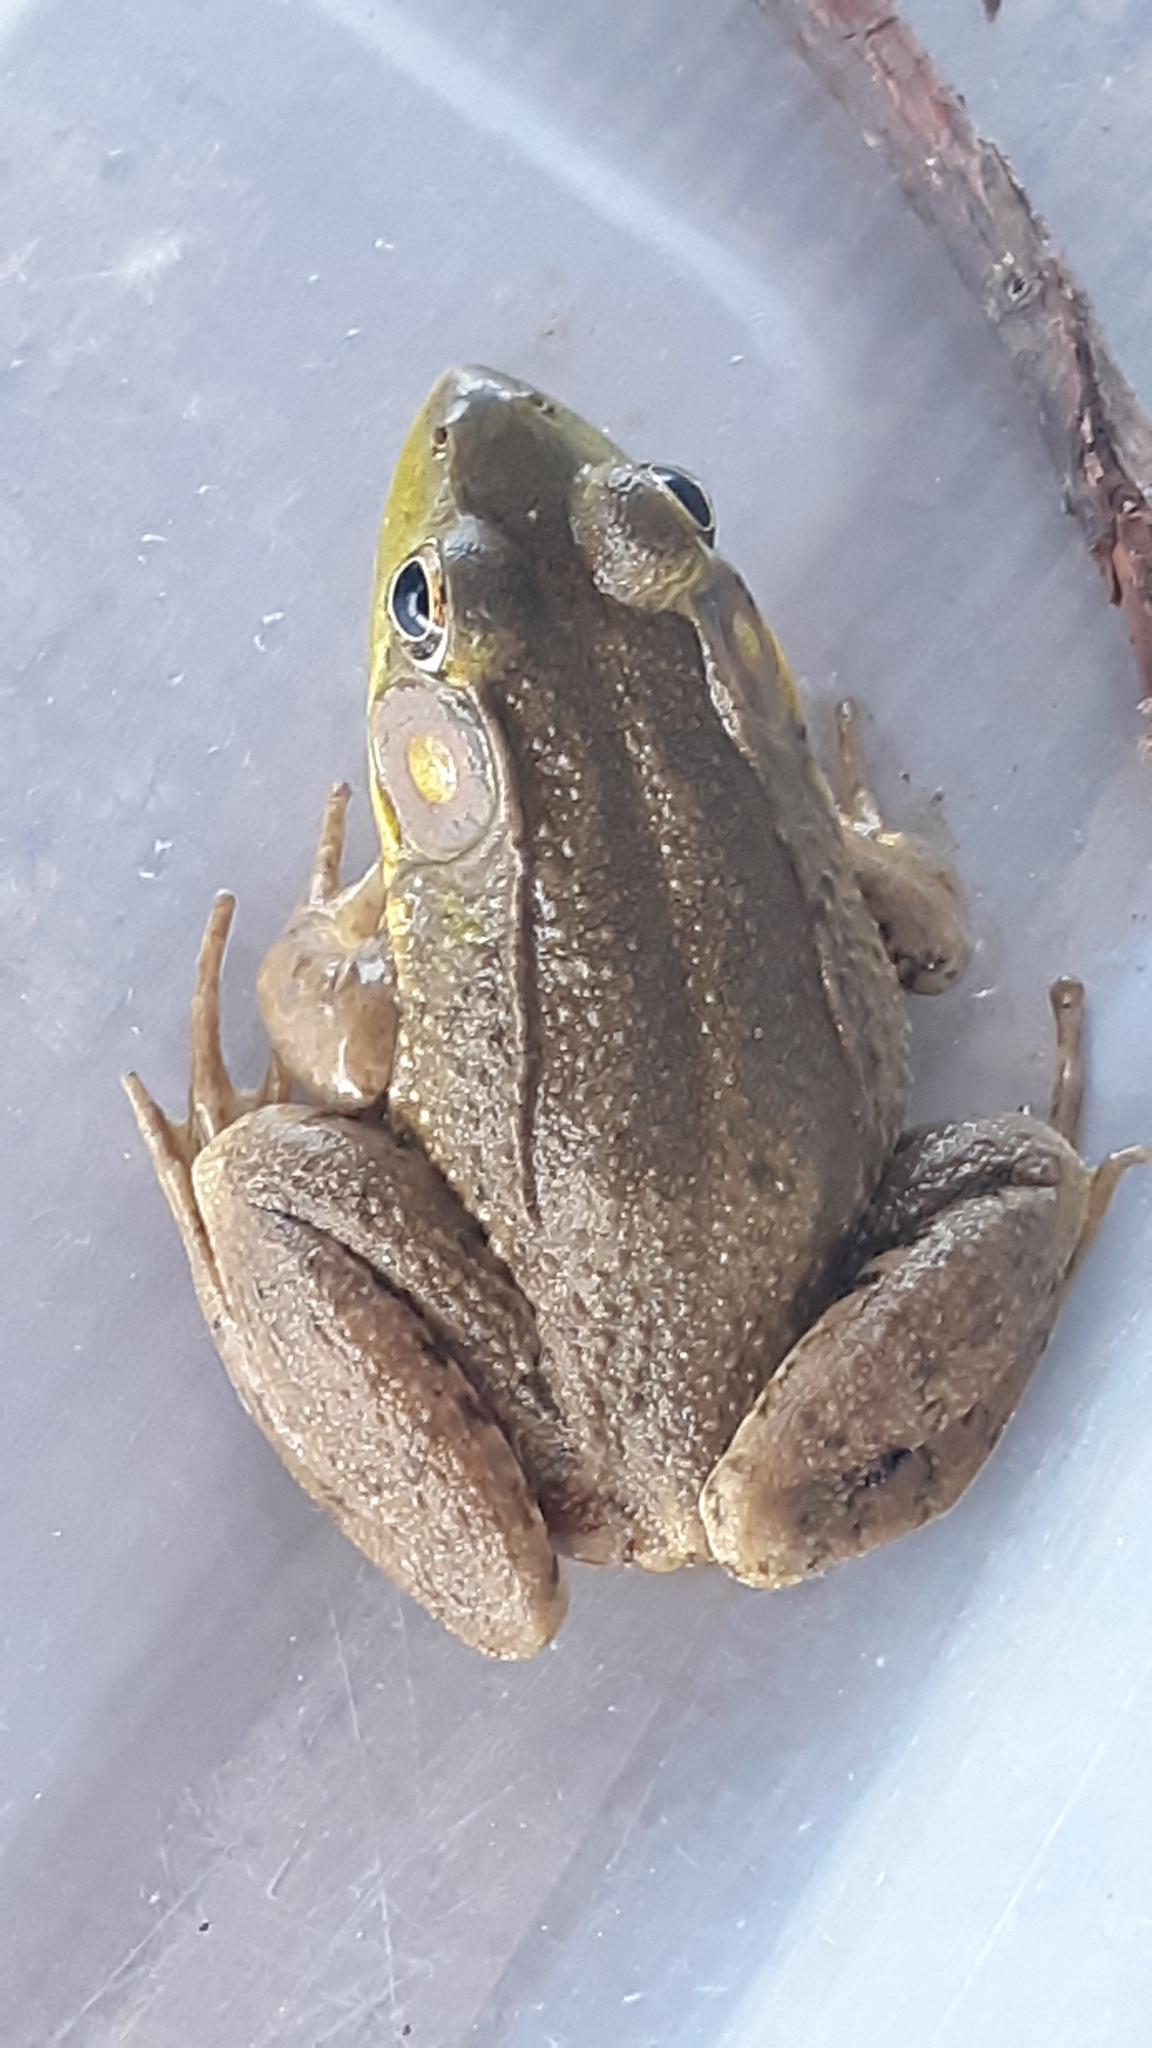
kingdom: Animalia
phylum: Chordata
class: Amphibia
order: Anura
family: Ranidae
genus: Lithobates
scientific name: Lithobates clamitans
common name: Green frog
